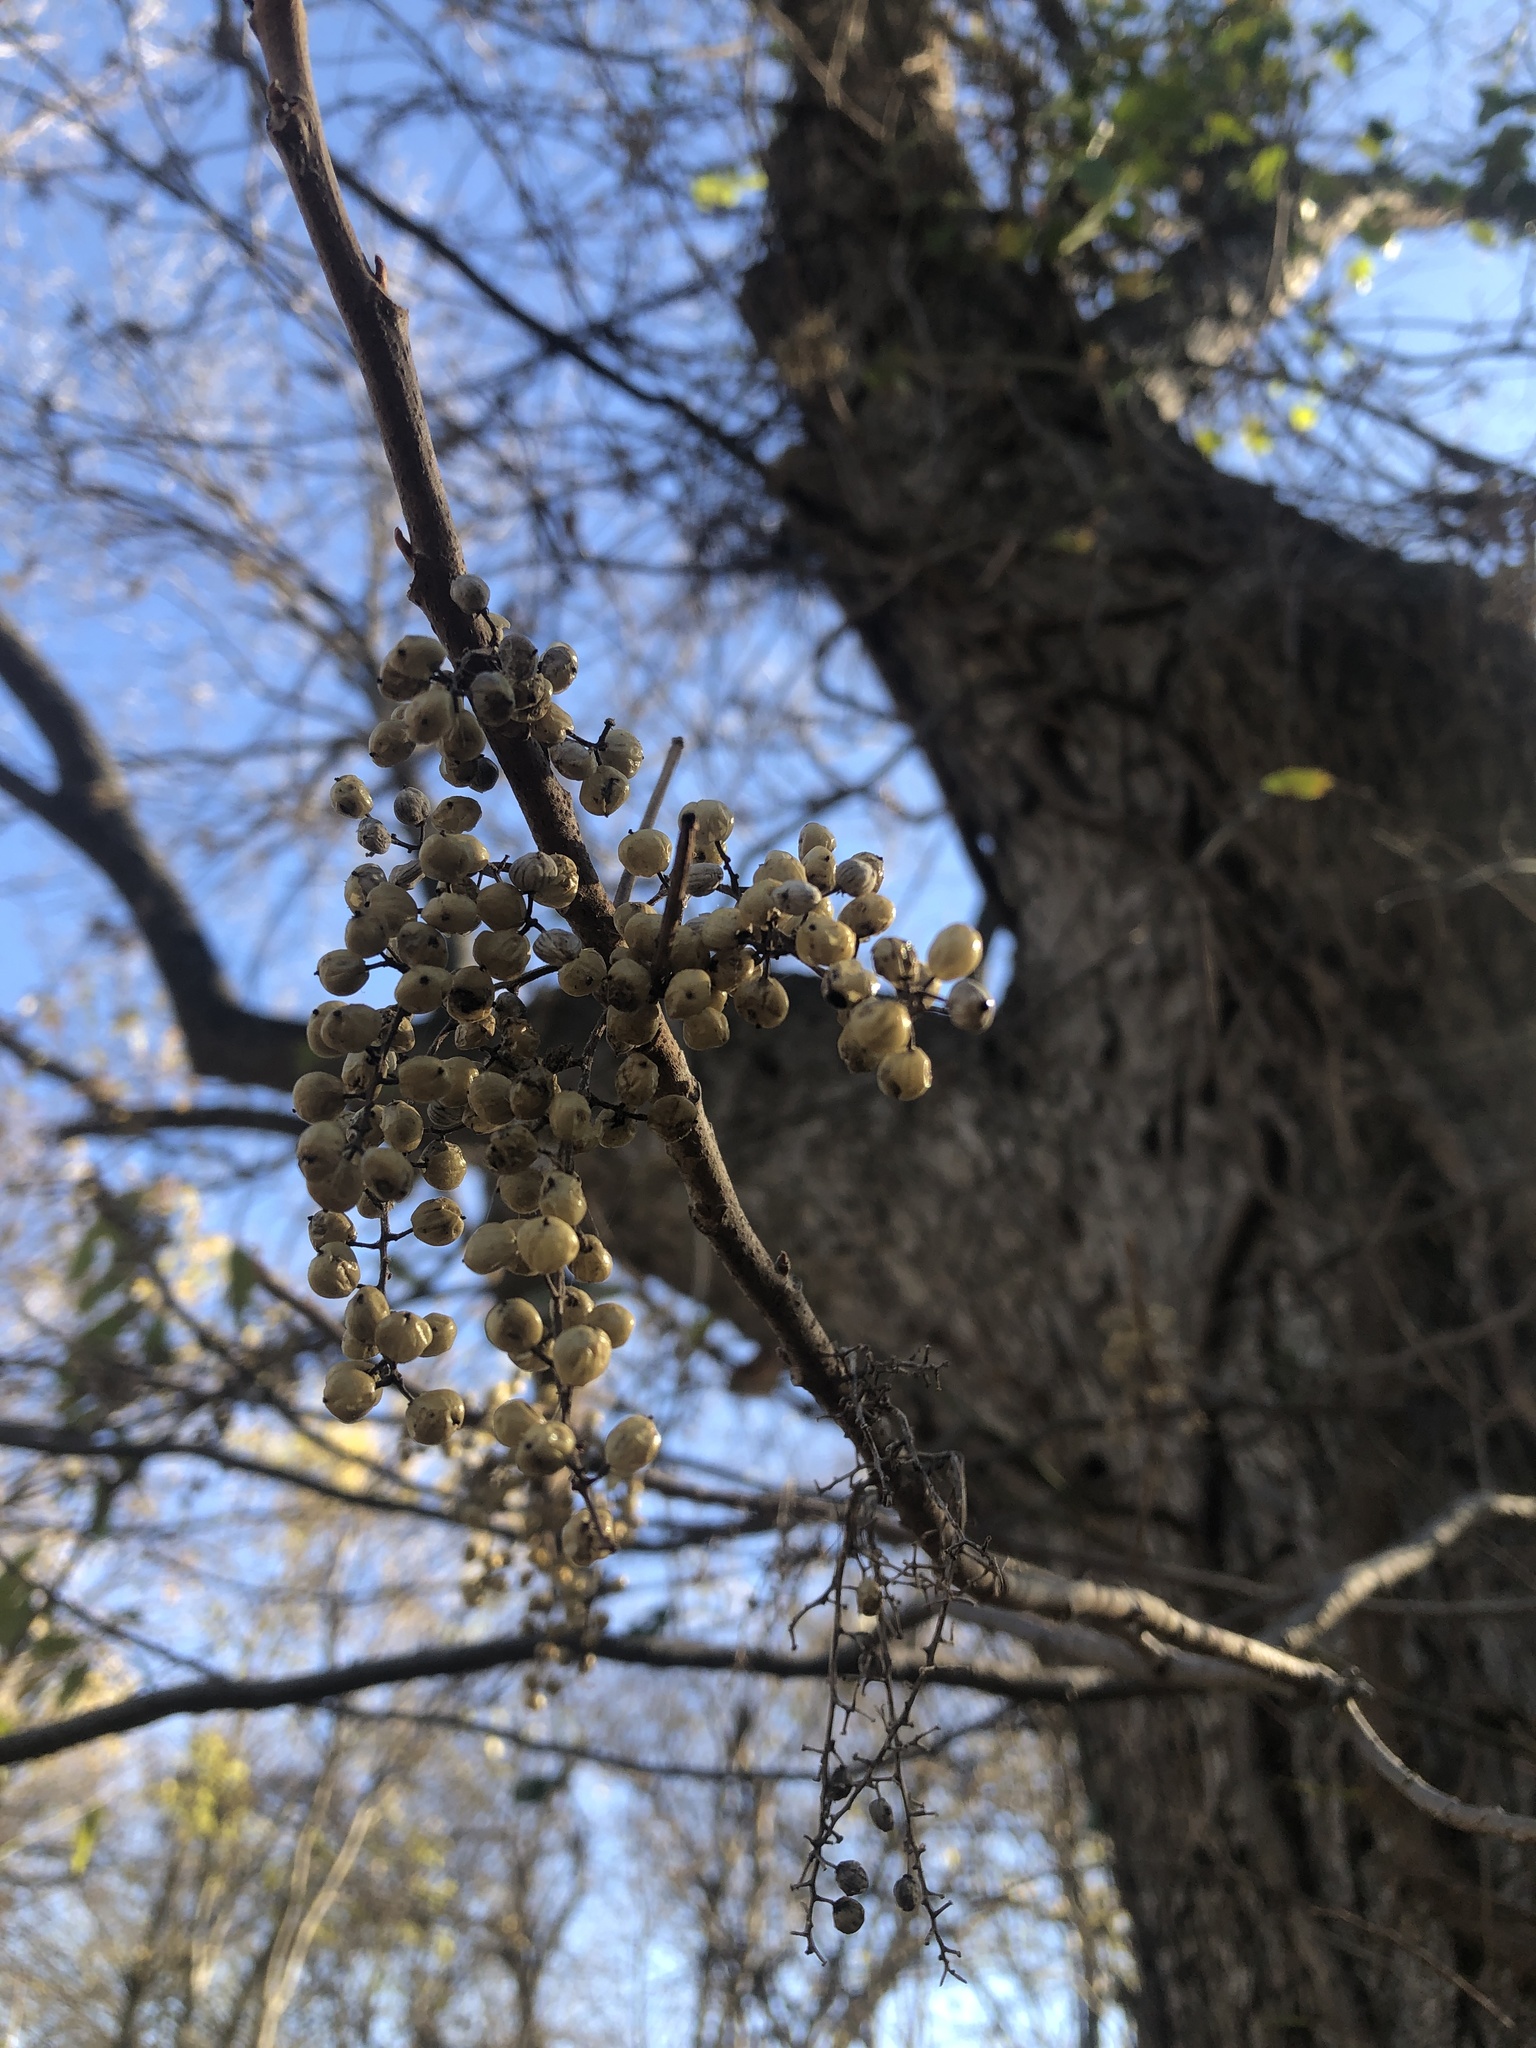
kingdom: Plantae
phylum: Tracheophyta
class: Magnoliopsida
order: Sapindales
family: Anacardiaceae
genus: Toxicodendron
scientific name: Toxicodendron radicans
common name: Poison ivy
